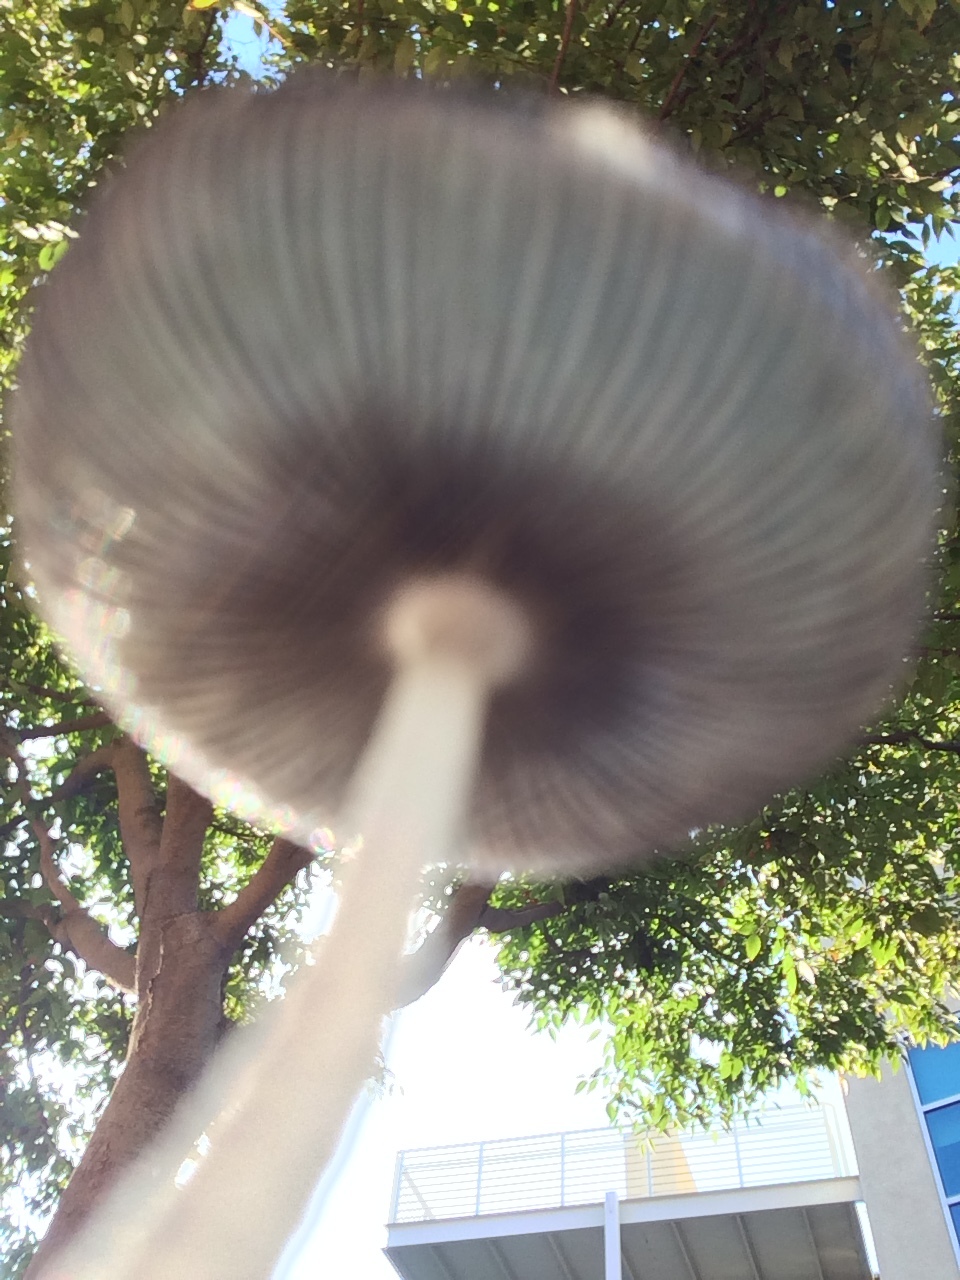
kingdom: Fungi
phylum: Basidiomycota
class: Agaricomycetes
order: Agaricales
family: Psathyrellaceae
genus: Coprinopsis
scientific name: Coprinopsis lagopus
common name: Hare'sfoot inkcap
